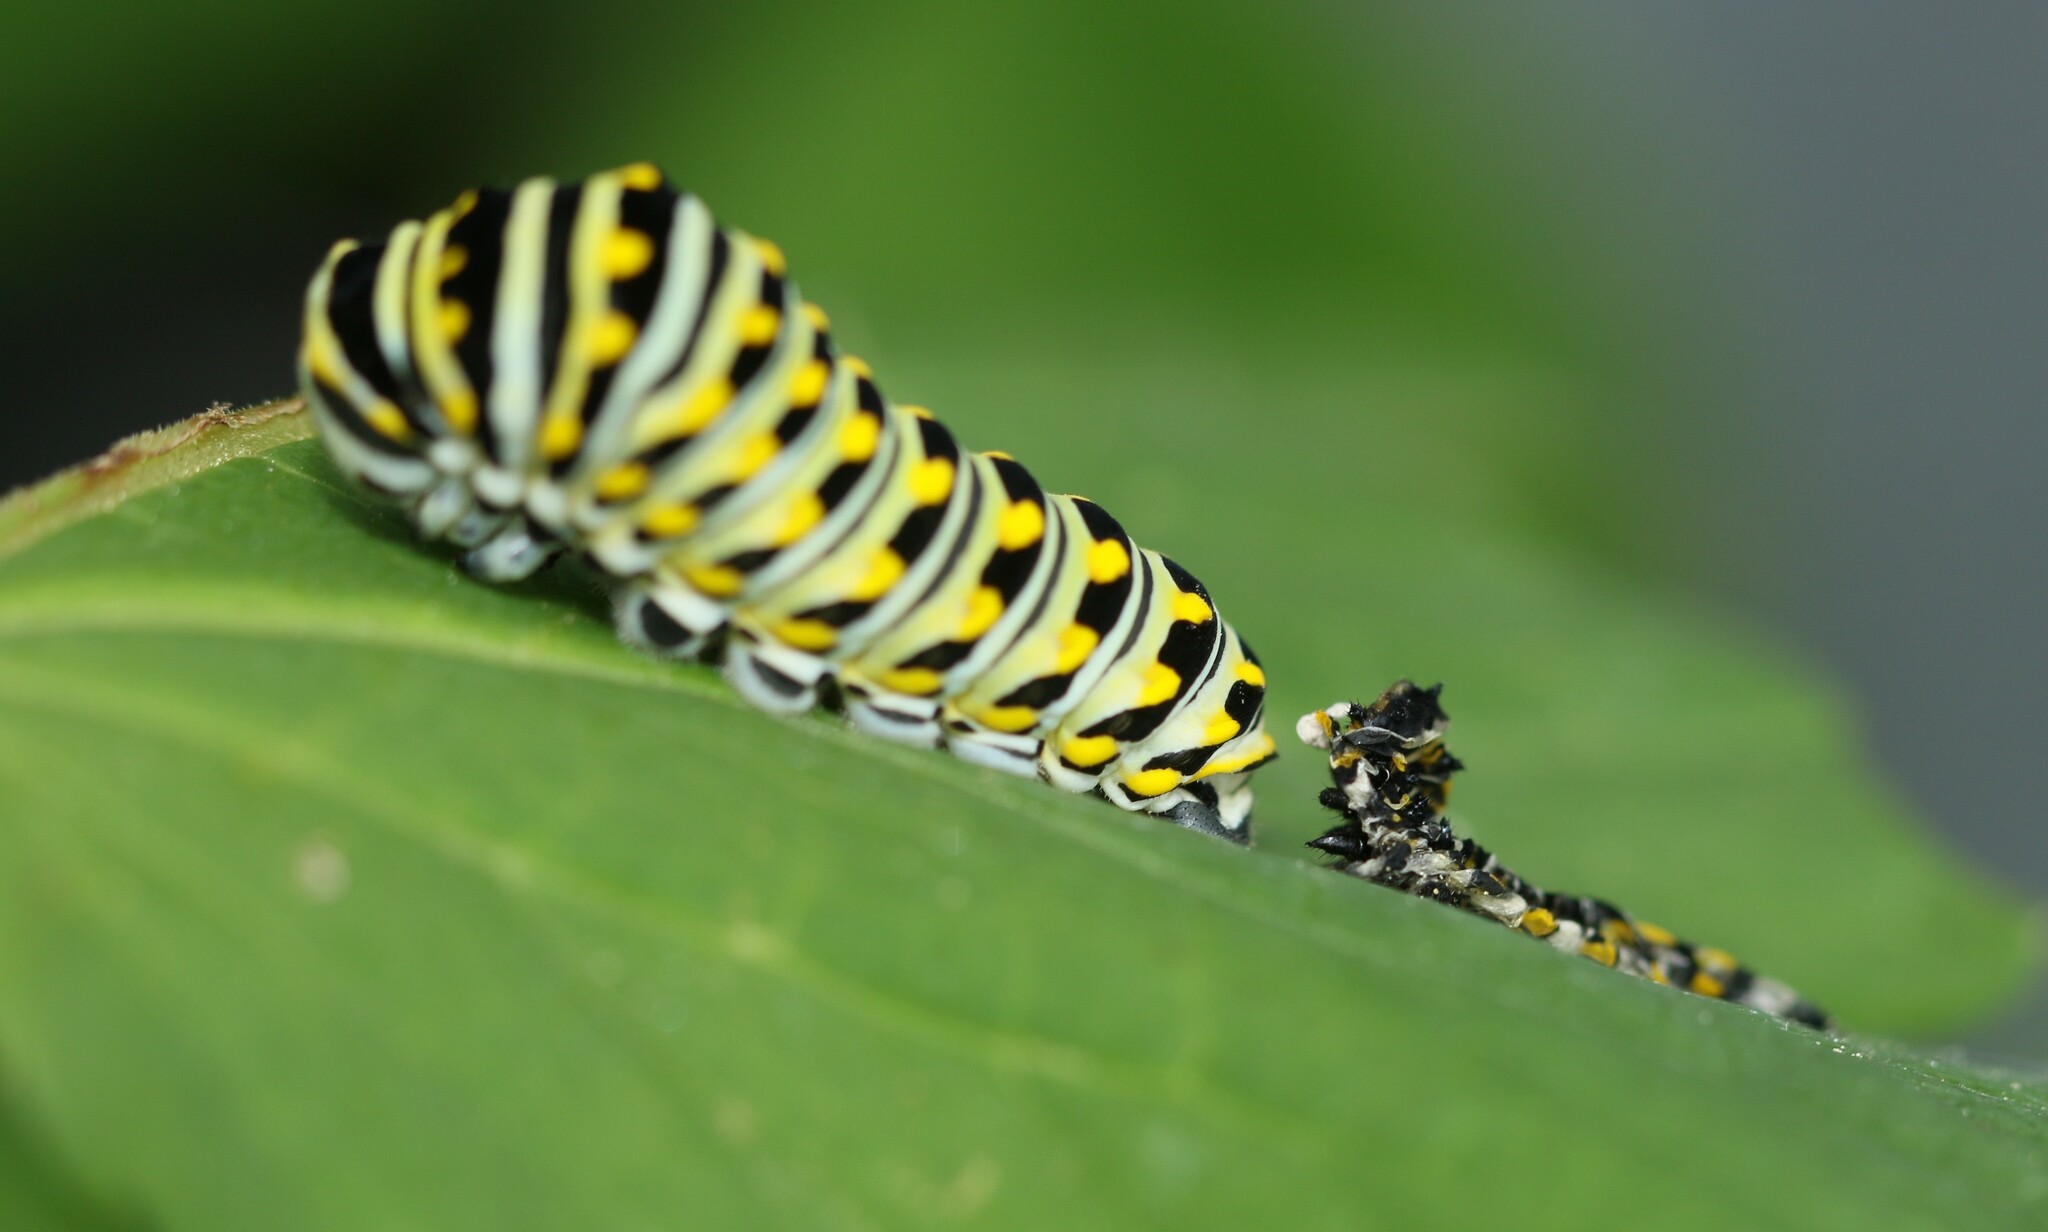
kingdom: Animalia
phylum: Arthropoda
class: Insecta
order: Lepidoptera
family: Papilionidae
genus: Papilio
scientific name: Papilio polyxenes
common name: Black swallowtail
